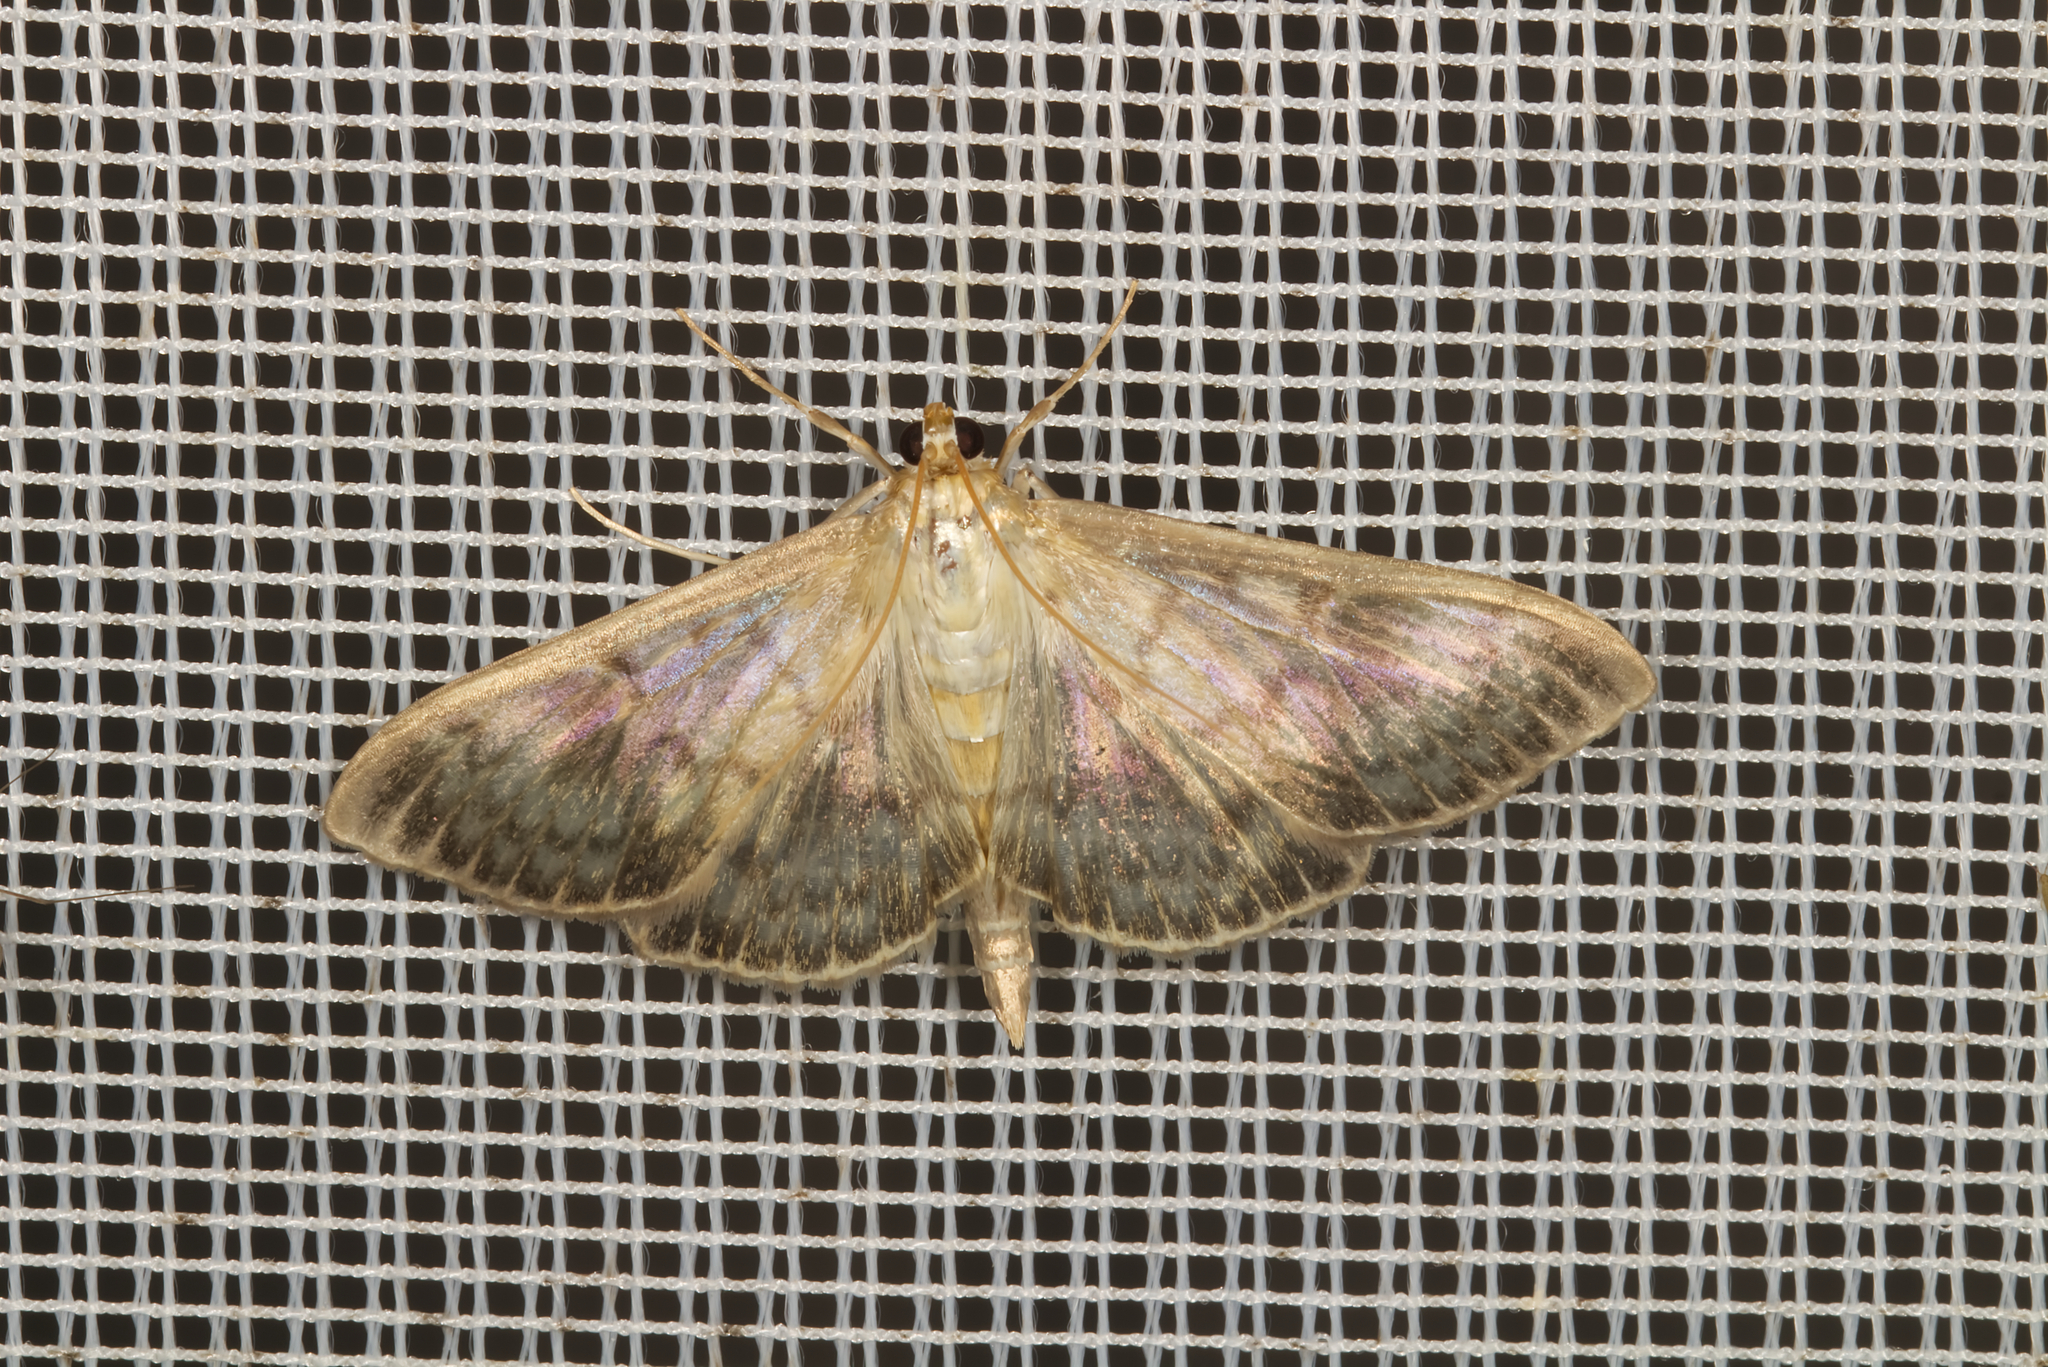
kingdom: Animalia
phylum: Arthropoda
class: Insecta
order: Lepidoptera
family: Crambidae
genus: Patania
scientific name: Patania ruralis
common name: Mother of pearl
